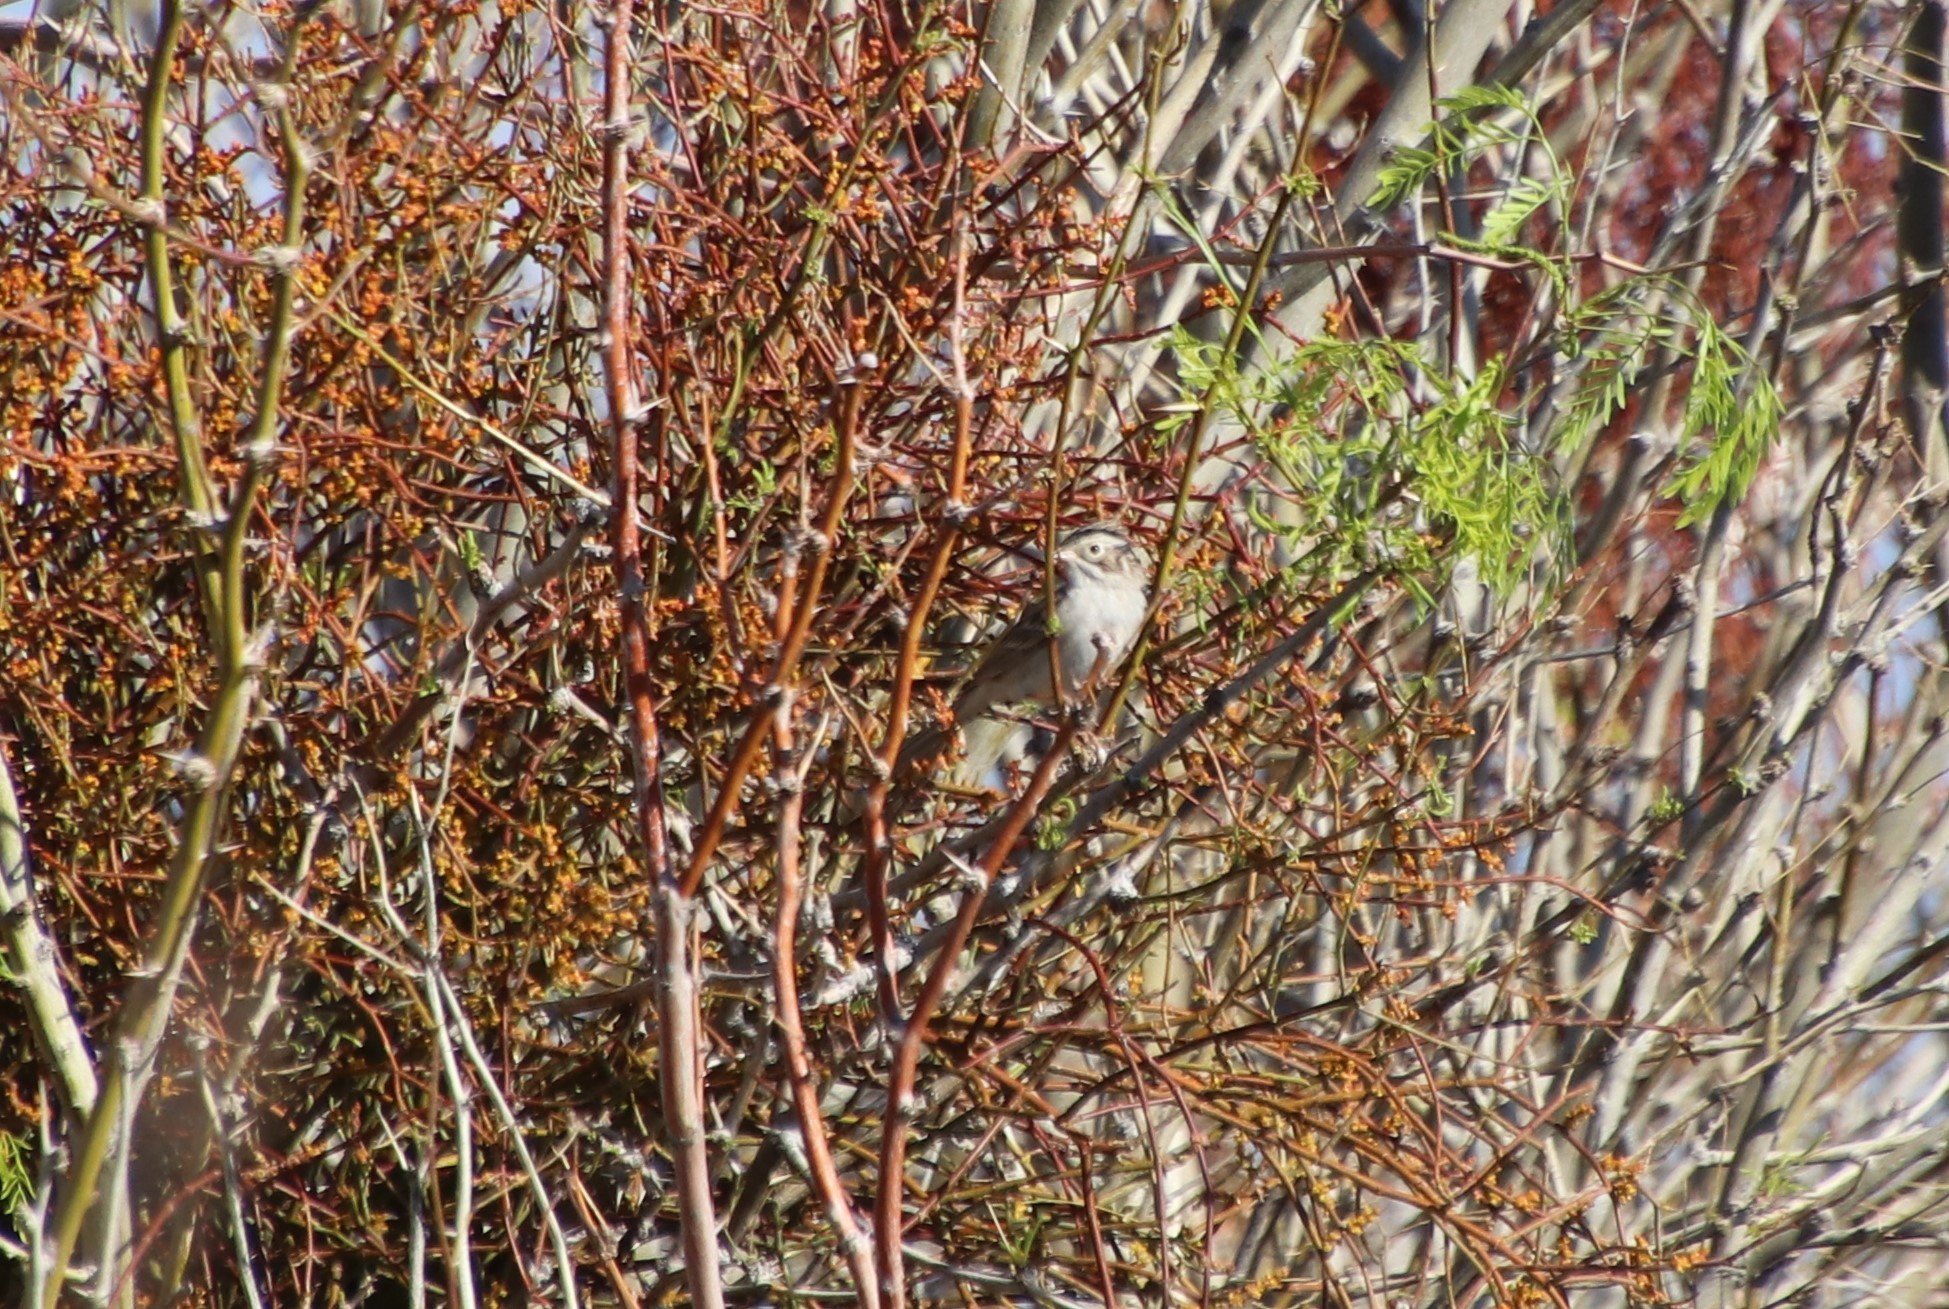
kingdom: Animalia
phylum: Chordata
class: Aves
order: Passeriformes
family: Passerellidae
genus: Spizella
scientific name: Spizella breweri
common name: Brewer's sparrow
